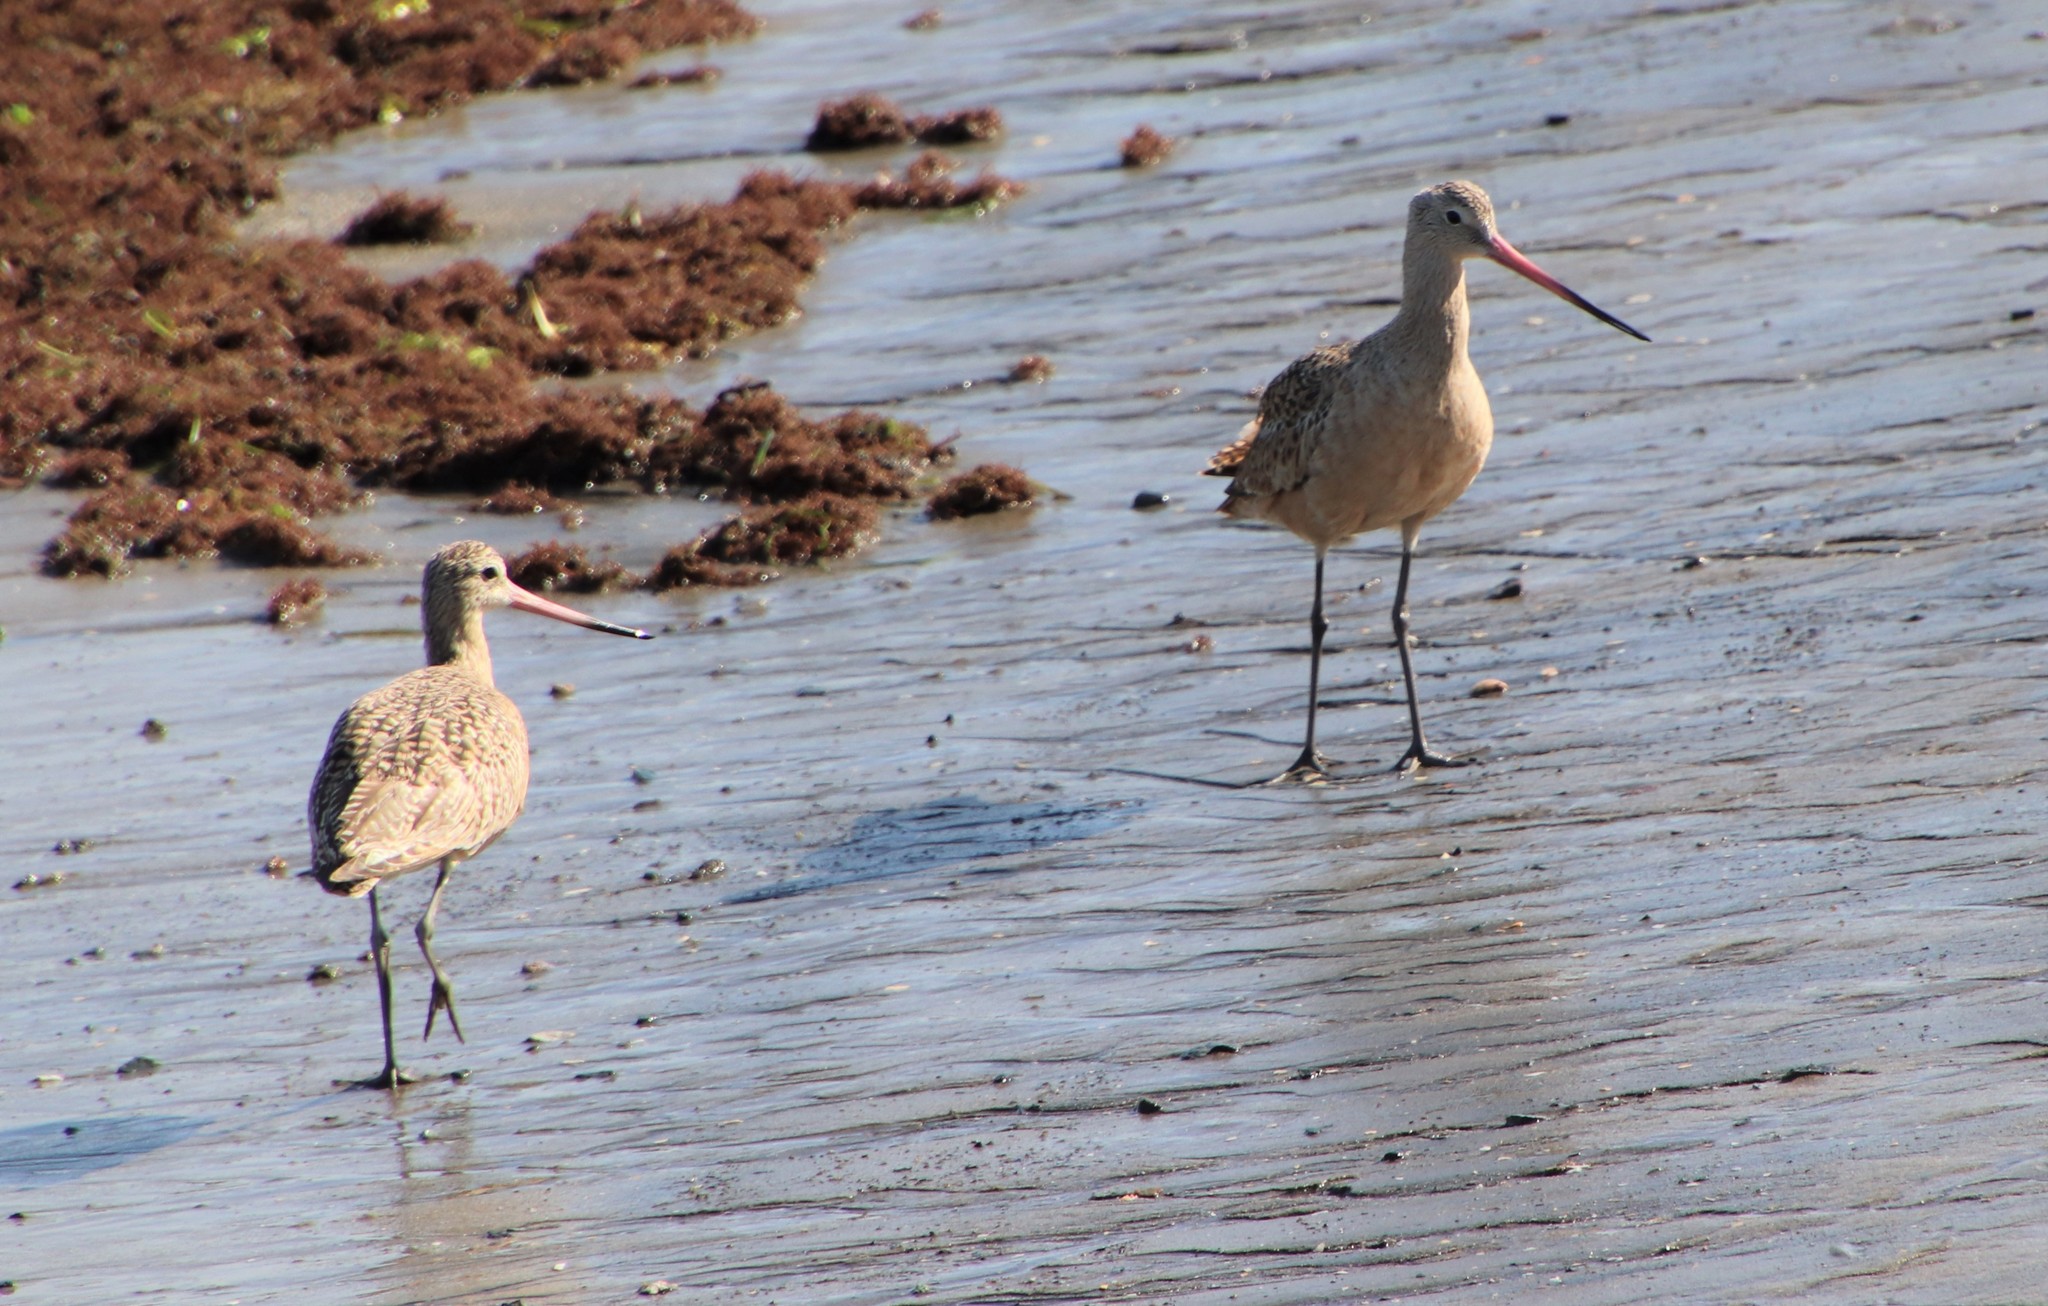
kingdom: Animalia
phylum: Chordata
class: Aves
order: Charadriiformes
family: Scolopacidae
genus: Limosa
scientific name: Limosa fedoa
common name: Marbled godwit
